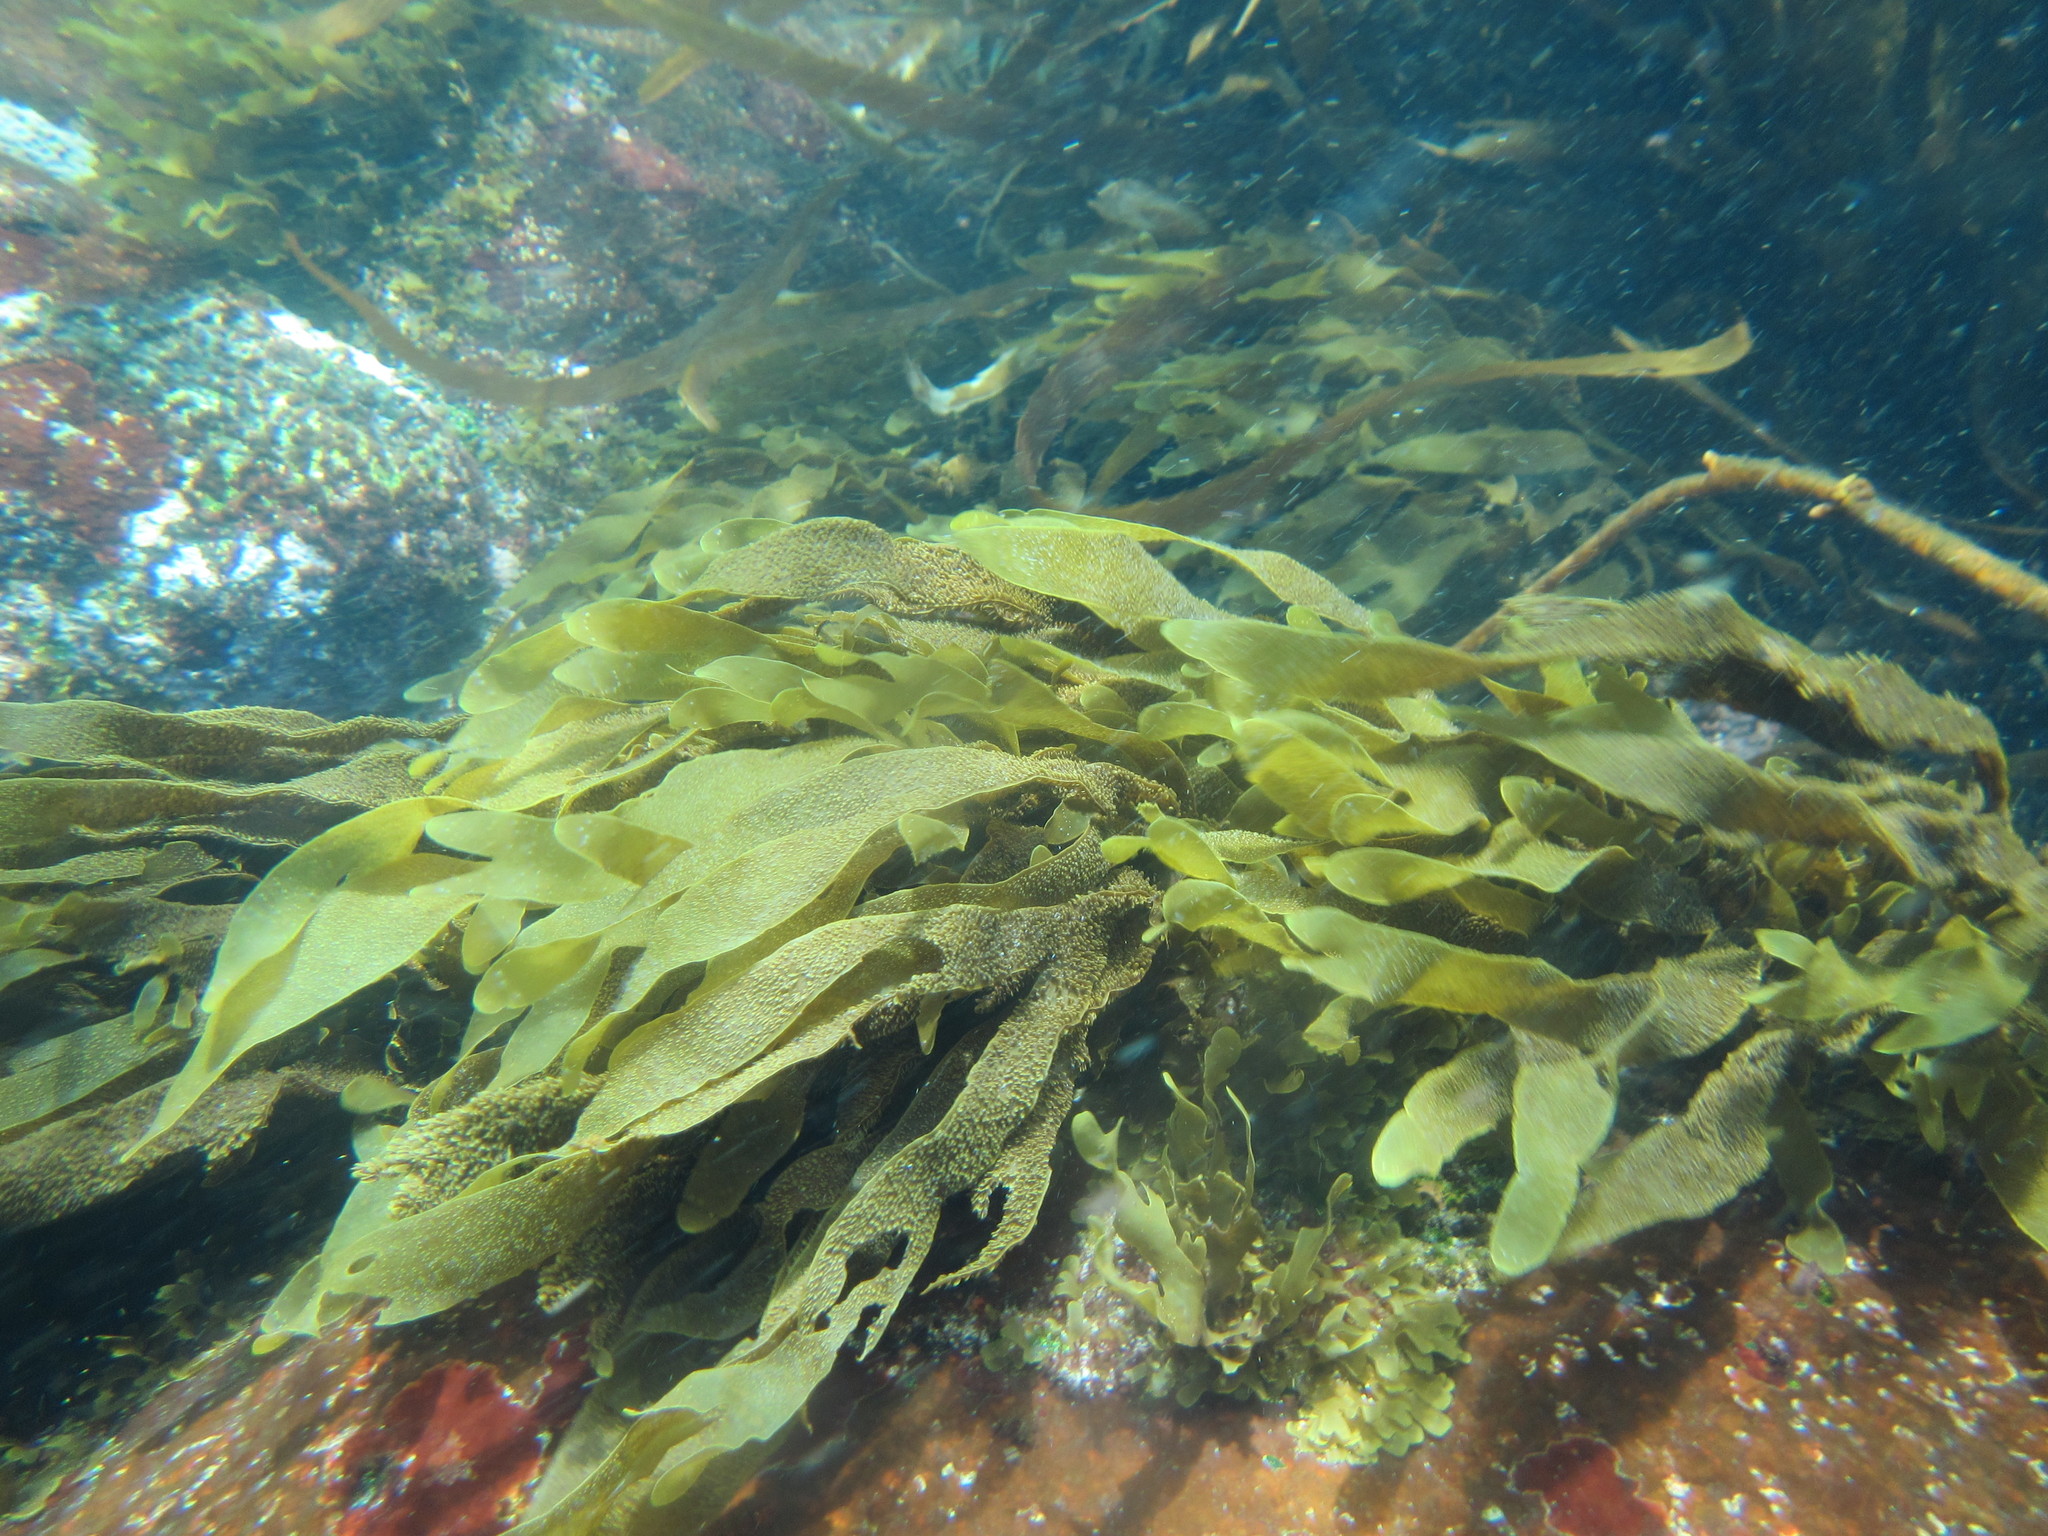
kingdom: Chromista
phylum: Ochrophyta
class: Phaeophyceae
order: Dictyotales
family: Dictyotaceae
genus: Dictyota
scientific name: Dictyota kunthii
